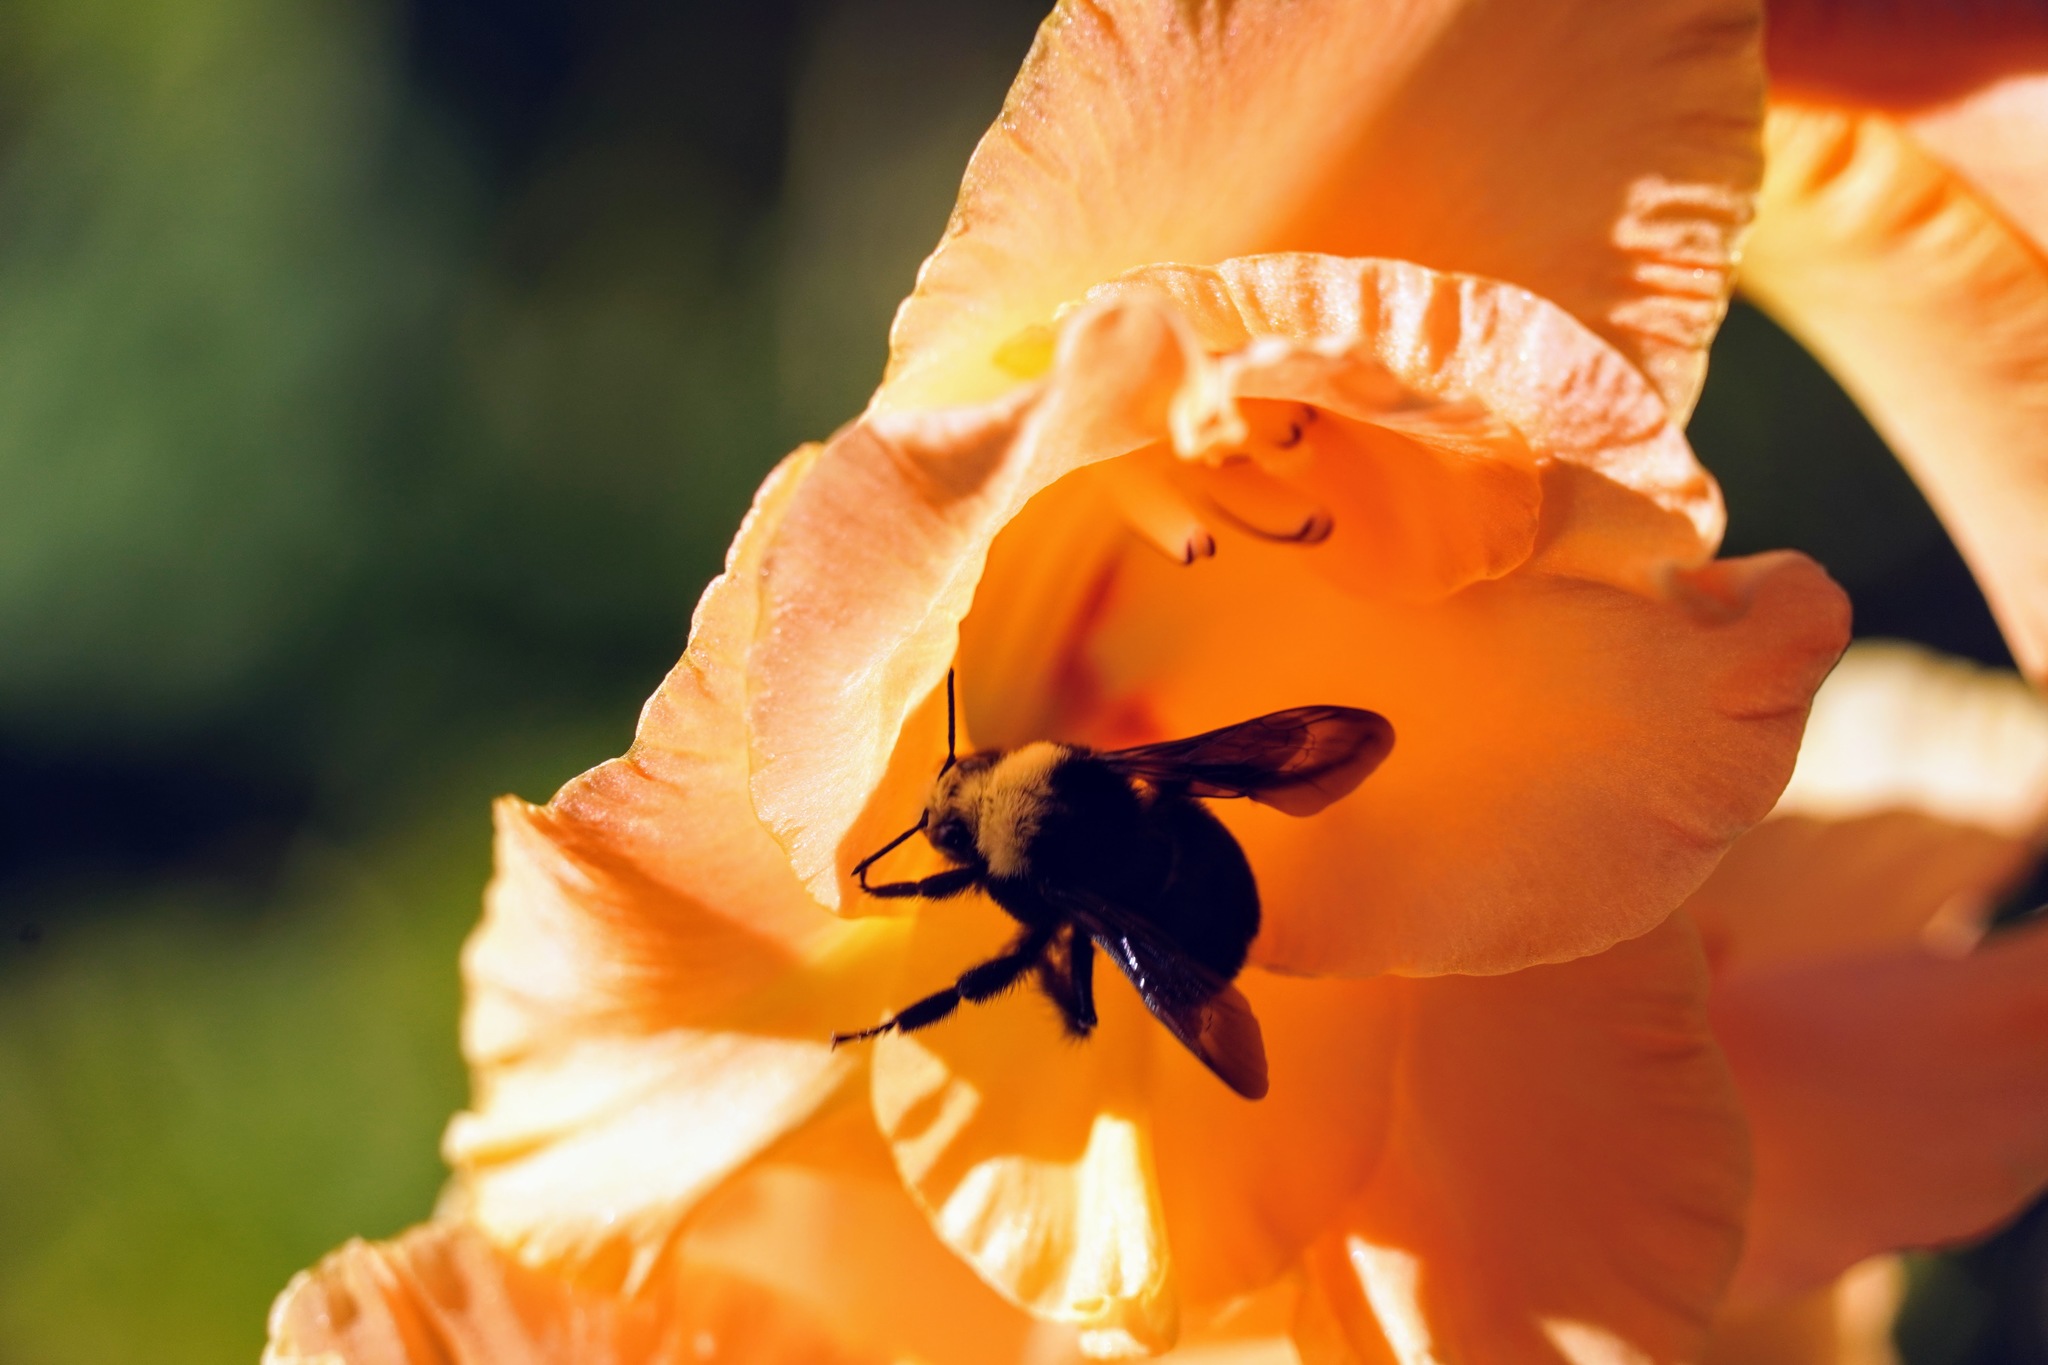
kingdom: Animalia
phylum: Arthropoda
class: Insecta
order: Hymenoptera
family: Apidae
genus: Bombus
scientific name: Bombus impatiens
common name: Common eastern bumble bee
